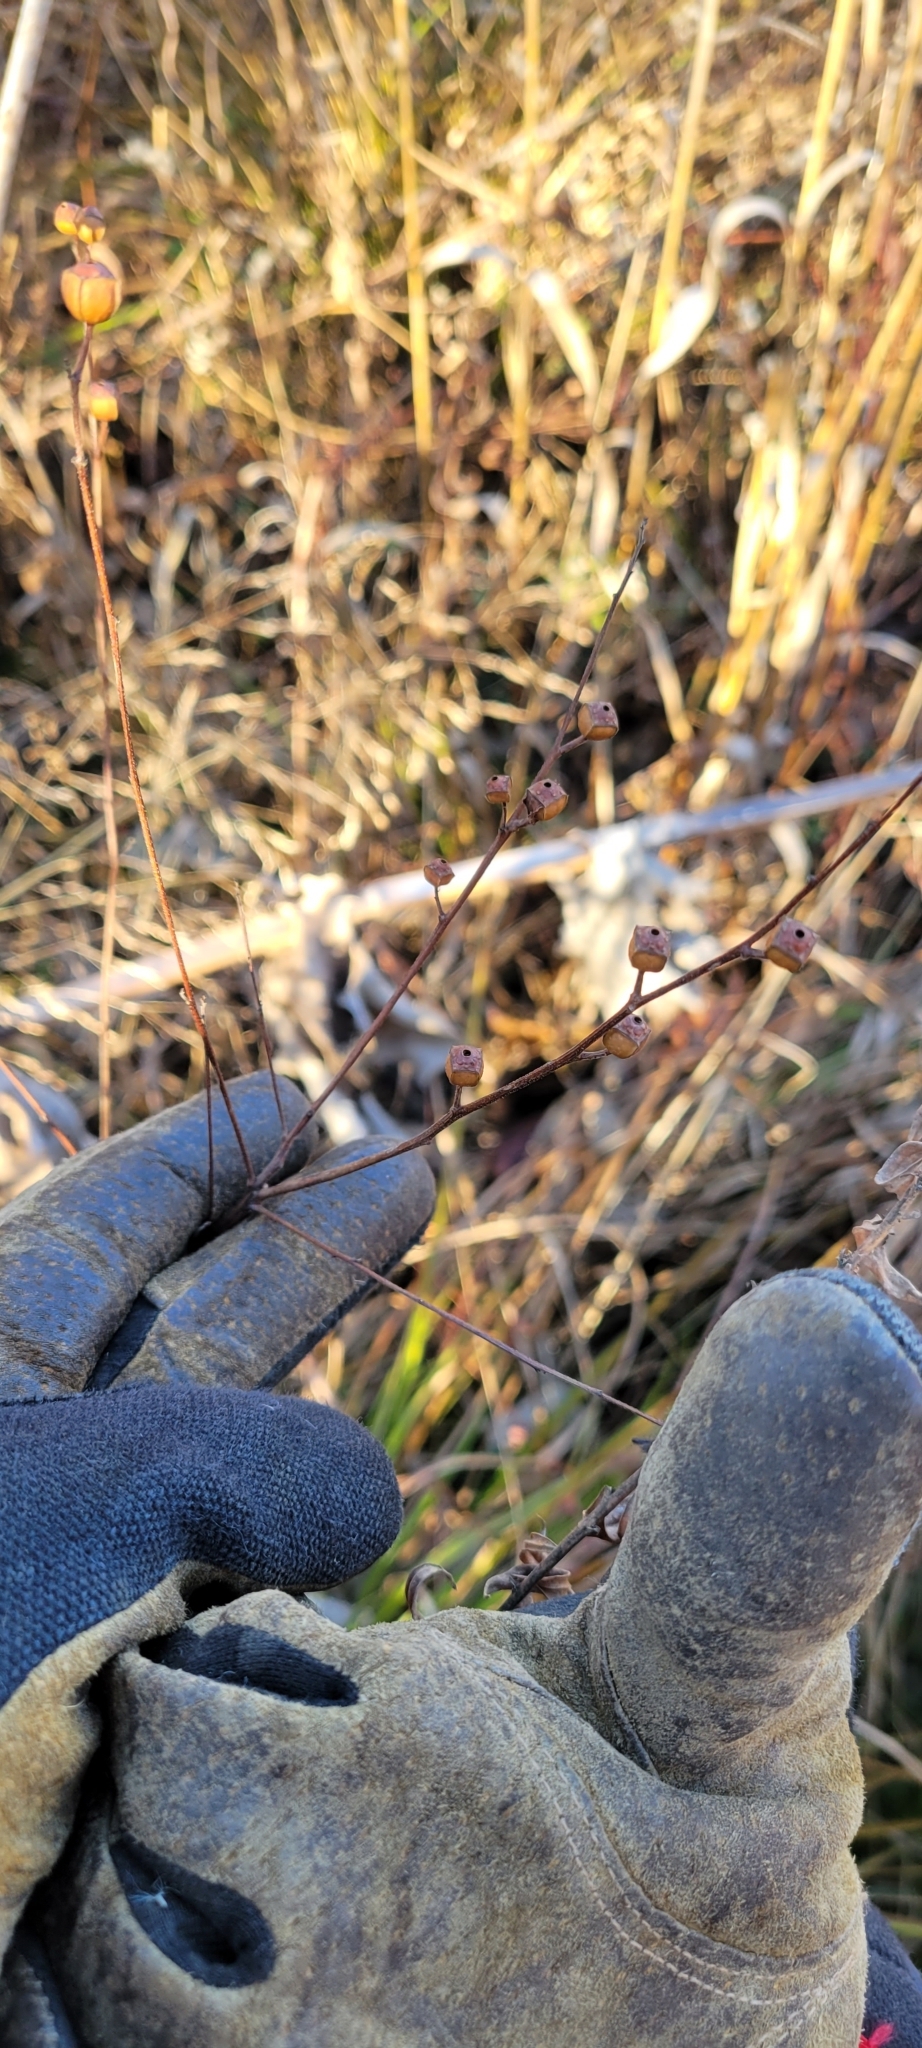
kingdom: Plantae
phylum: Tracheophyta
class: Magnoliopsida
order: Myrtales
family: Onagraceae
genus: Ludwigia
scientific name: Ludwigia alternifolia
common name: Rattlebox
